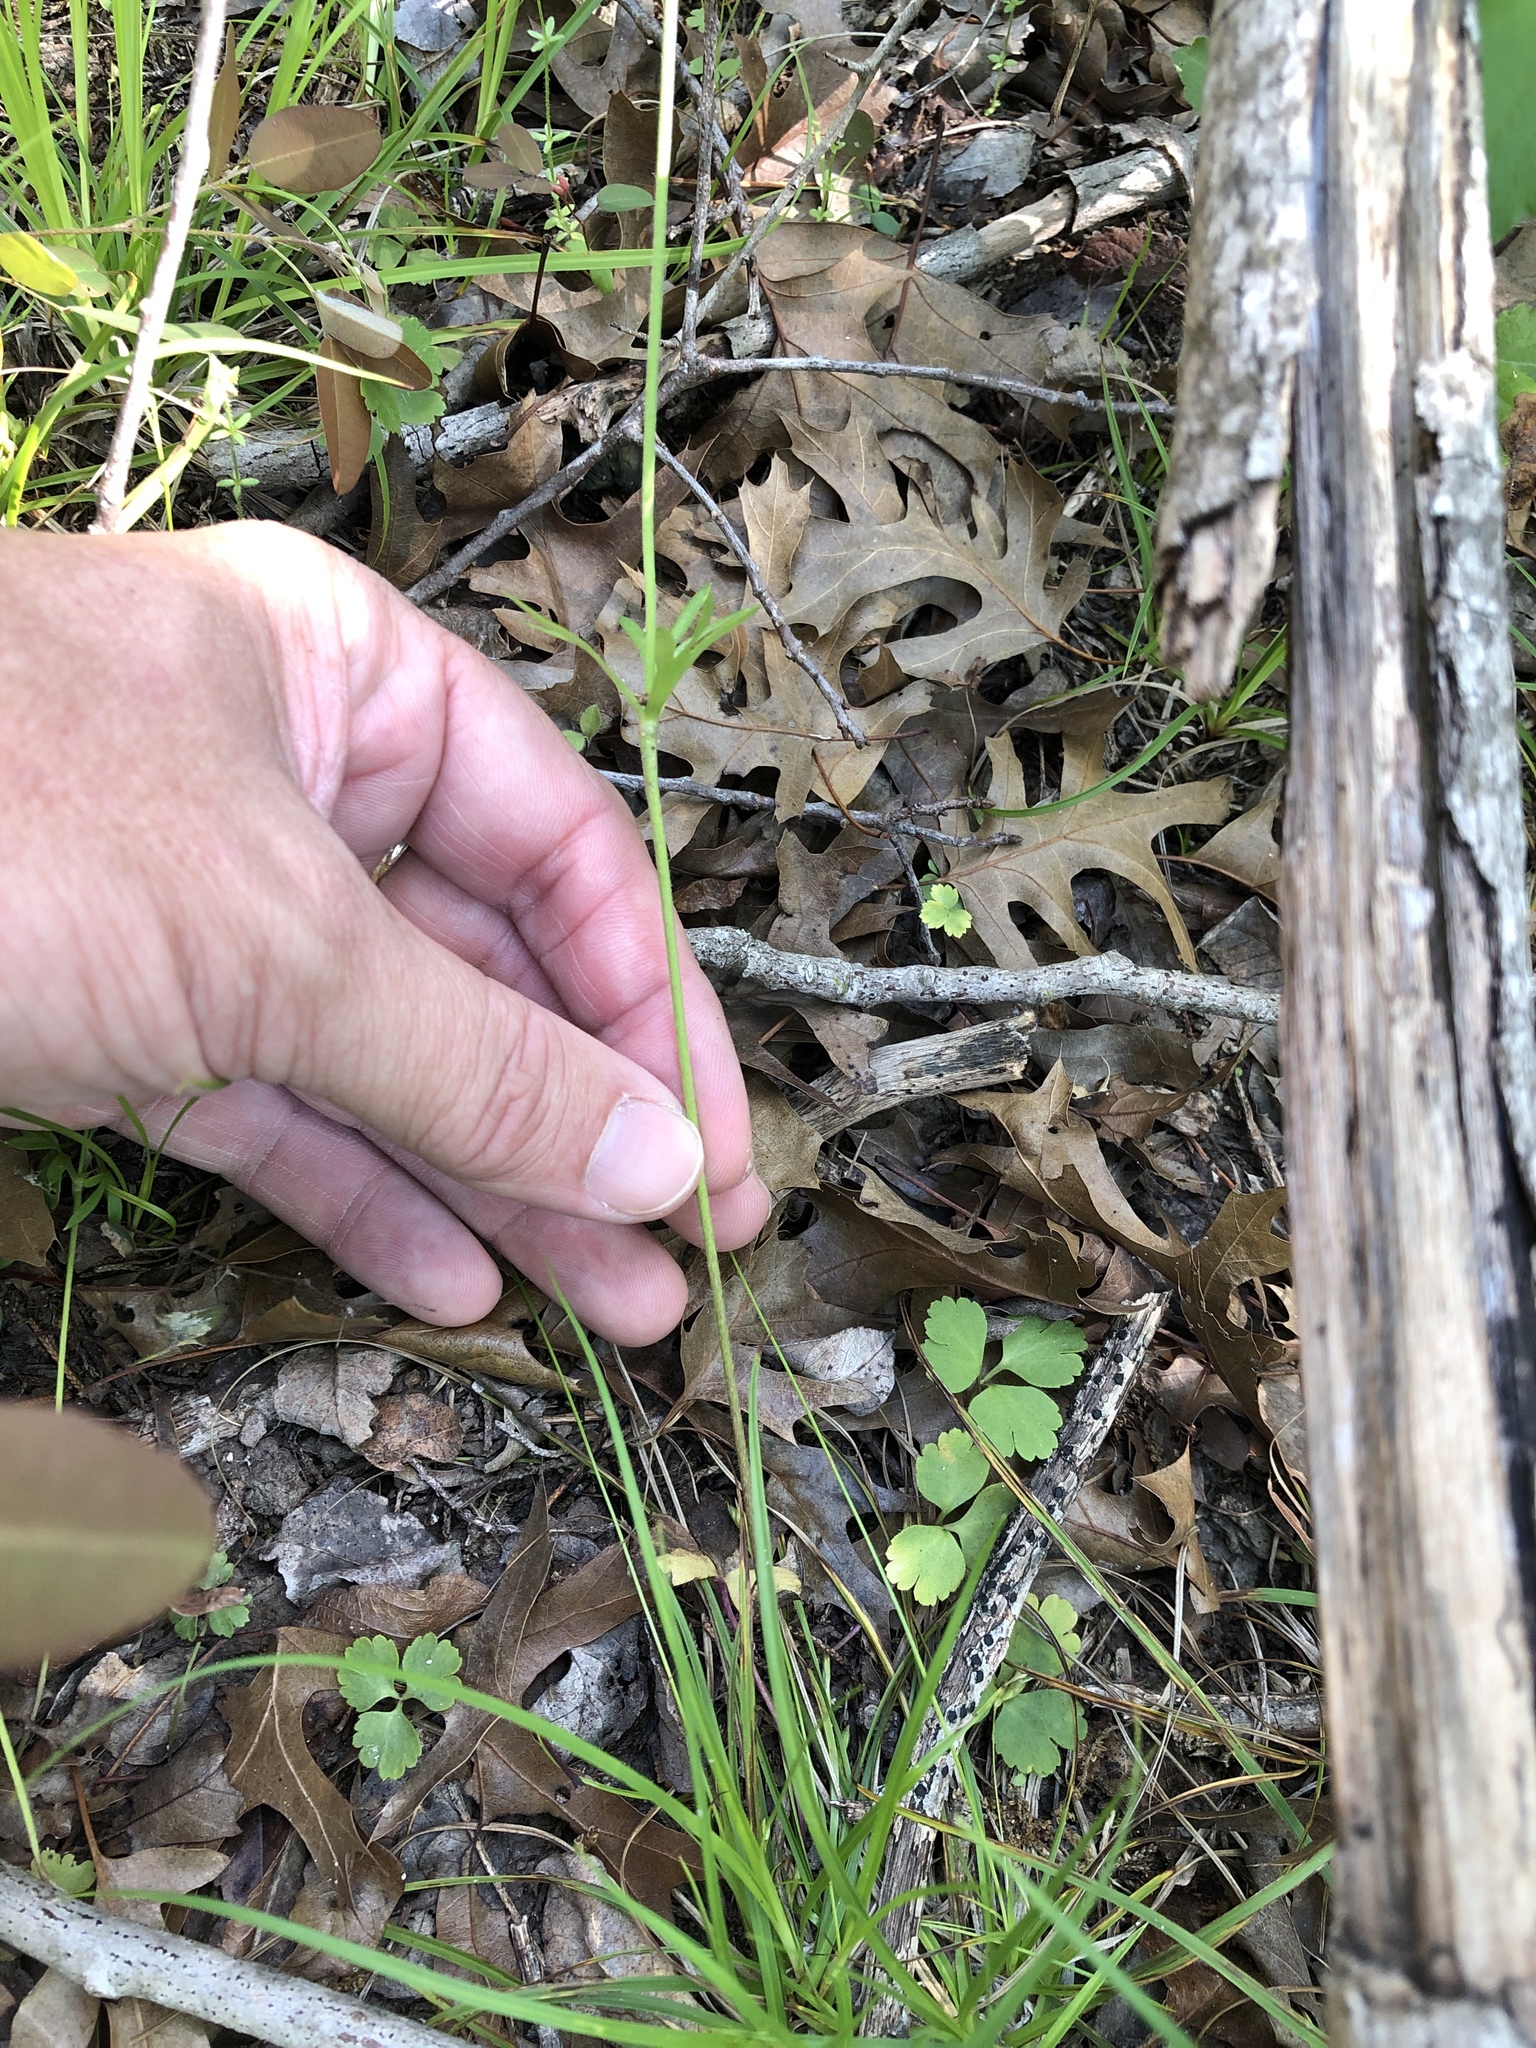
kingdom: Plantae
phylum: Tracheophyta
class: Magnoliopsida
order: Ranunculales
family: Ranunculaceae
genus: Anemone
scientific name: Anemone berlandieri
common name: Ten-petal anemone
